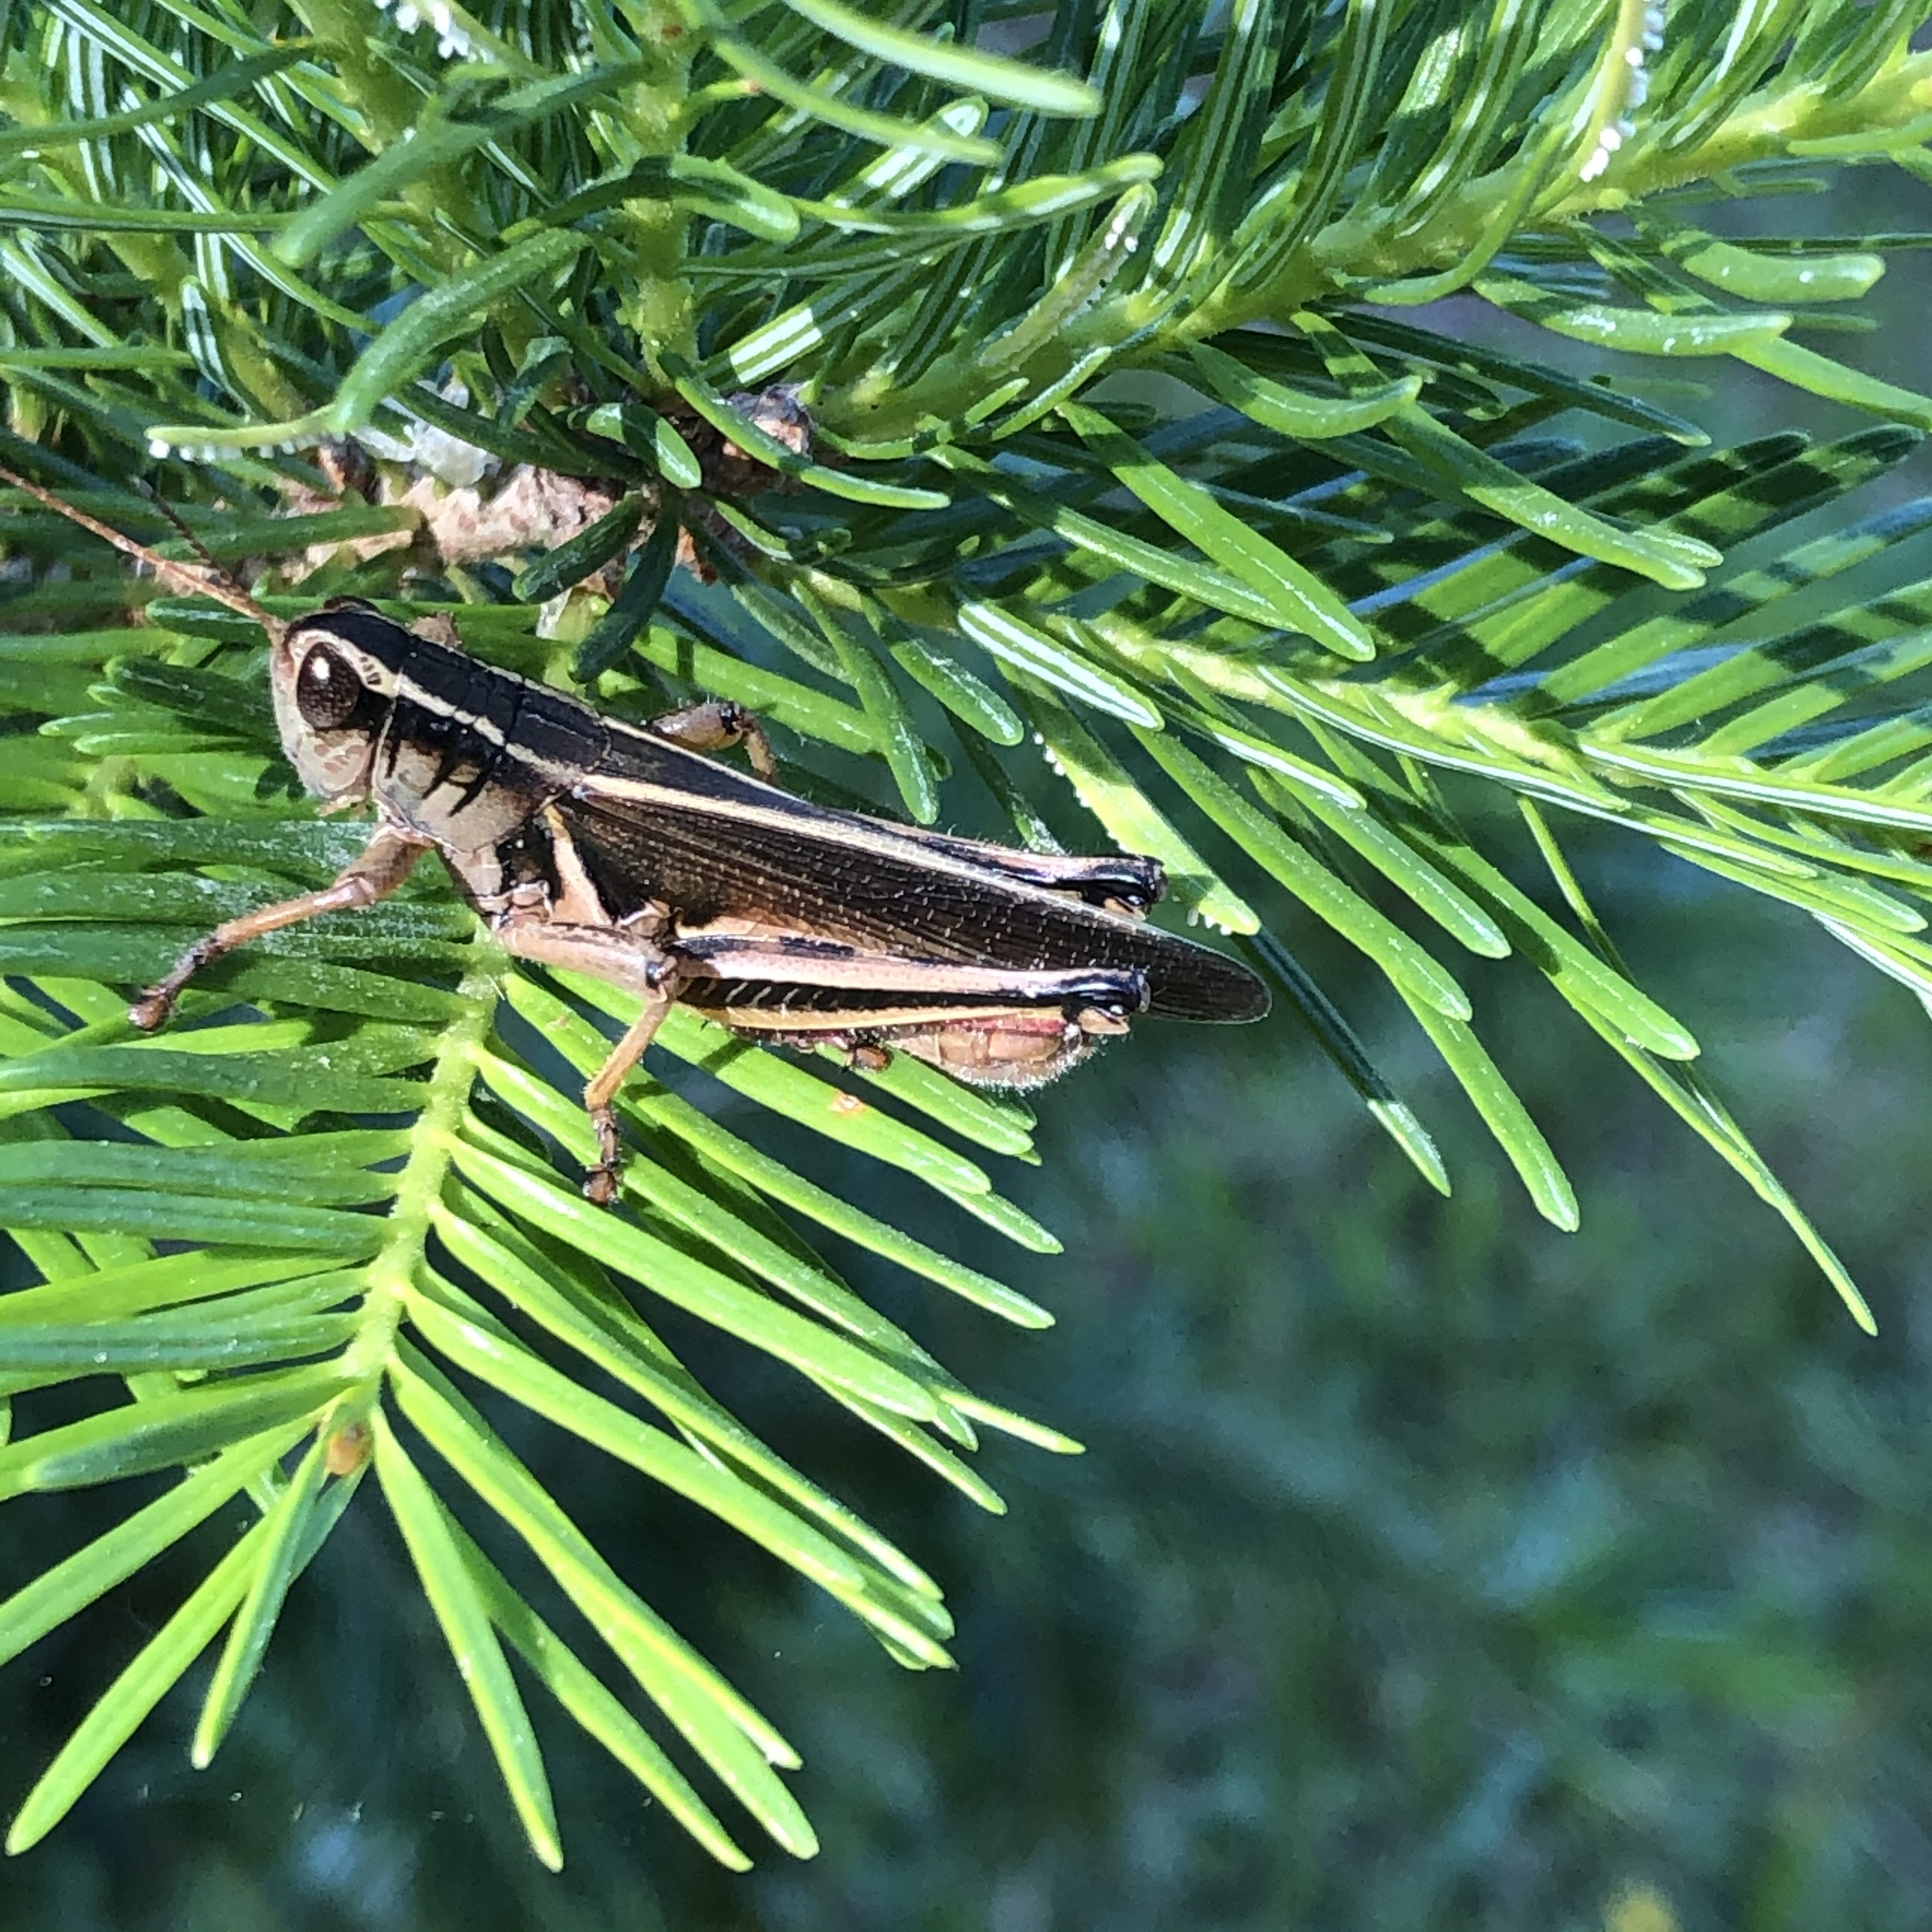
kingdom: Animalia
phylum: Arthropoda
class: Insecta
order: Orthoptera
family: Acrididae
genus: Melanoplus
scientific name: Melanoplus bivittatus
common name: Two-striped grasshopper
